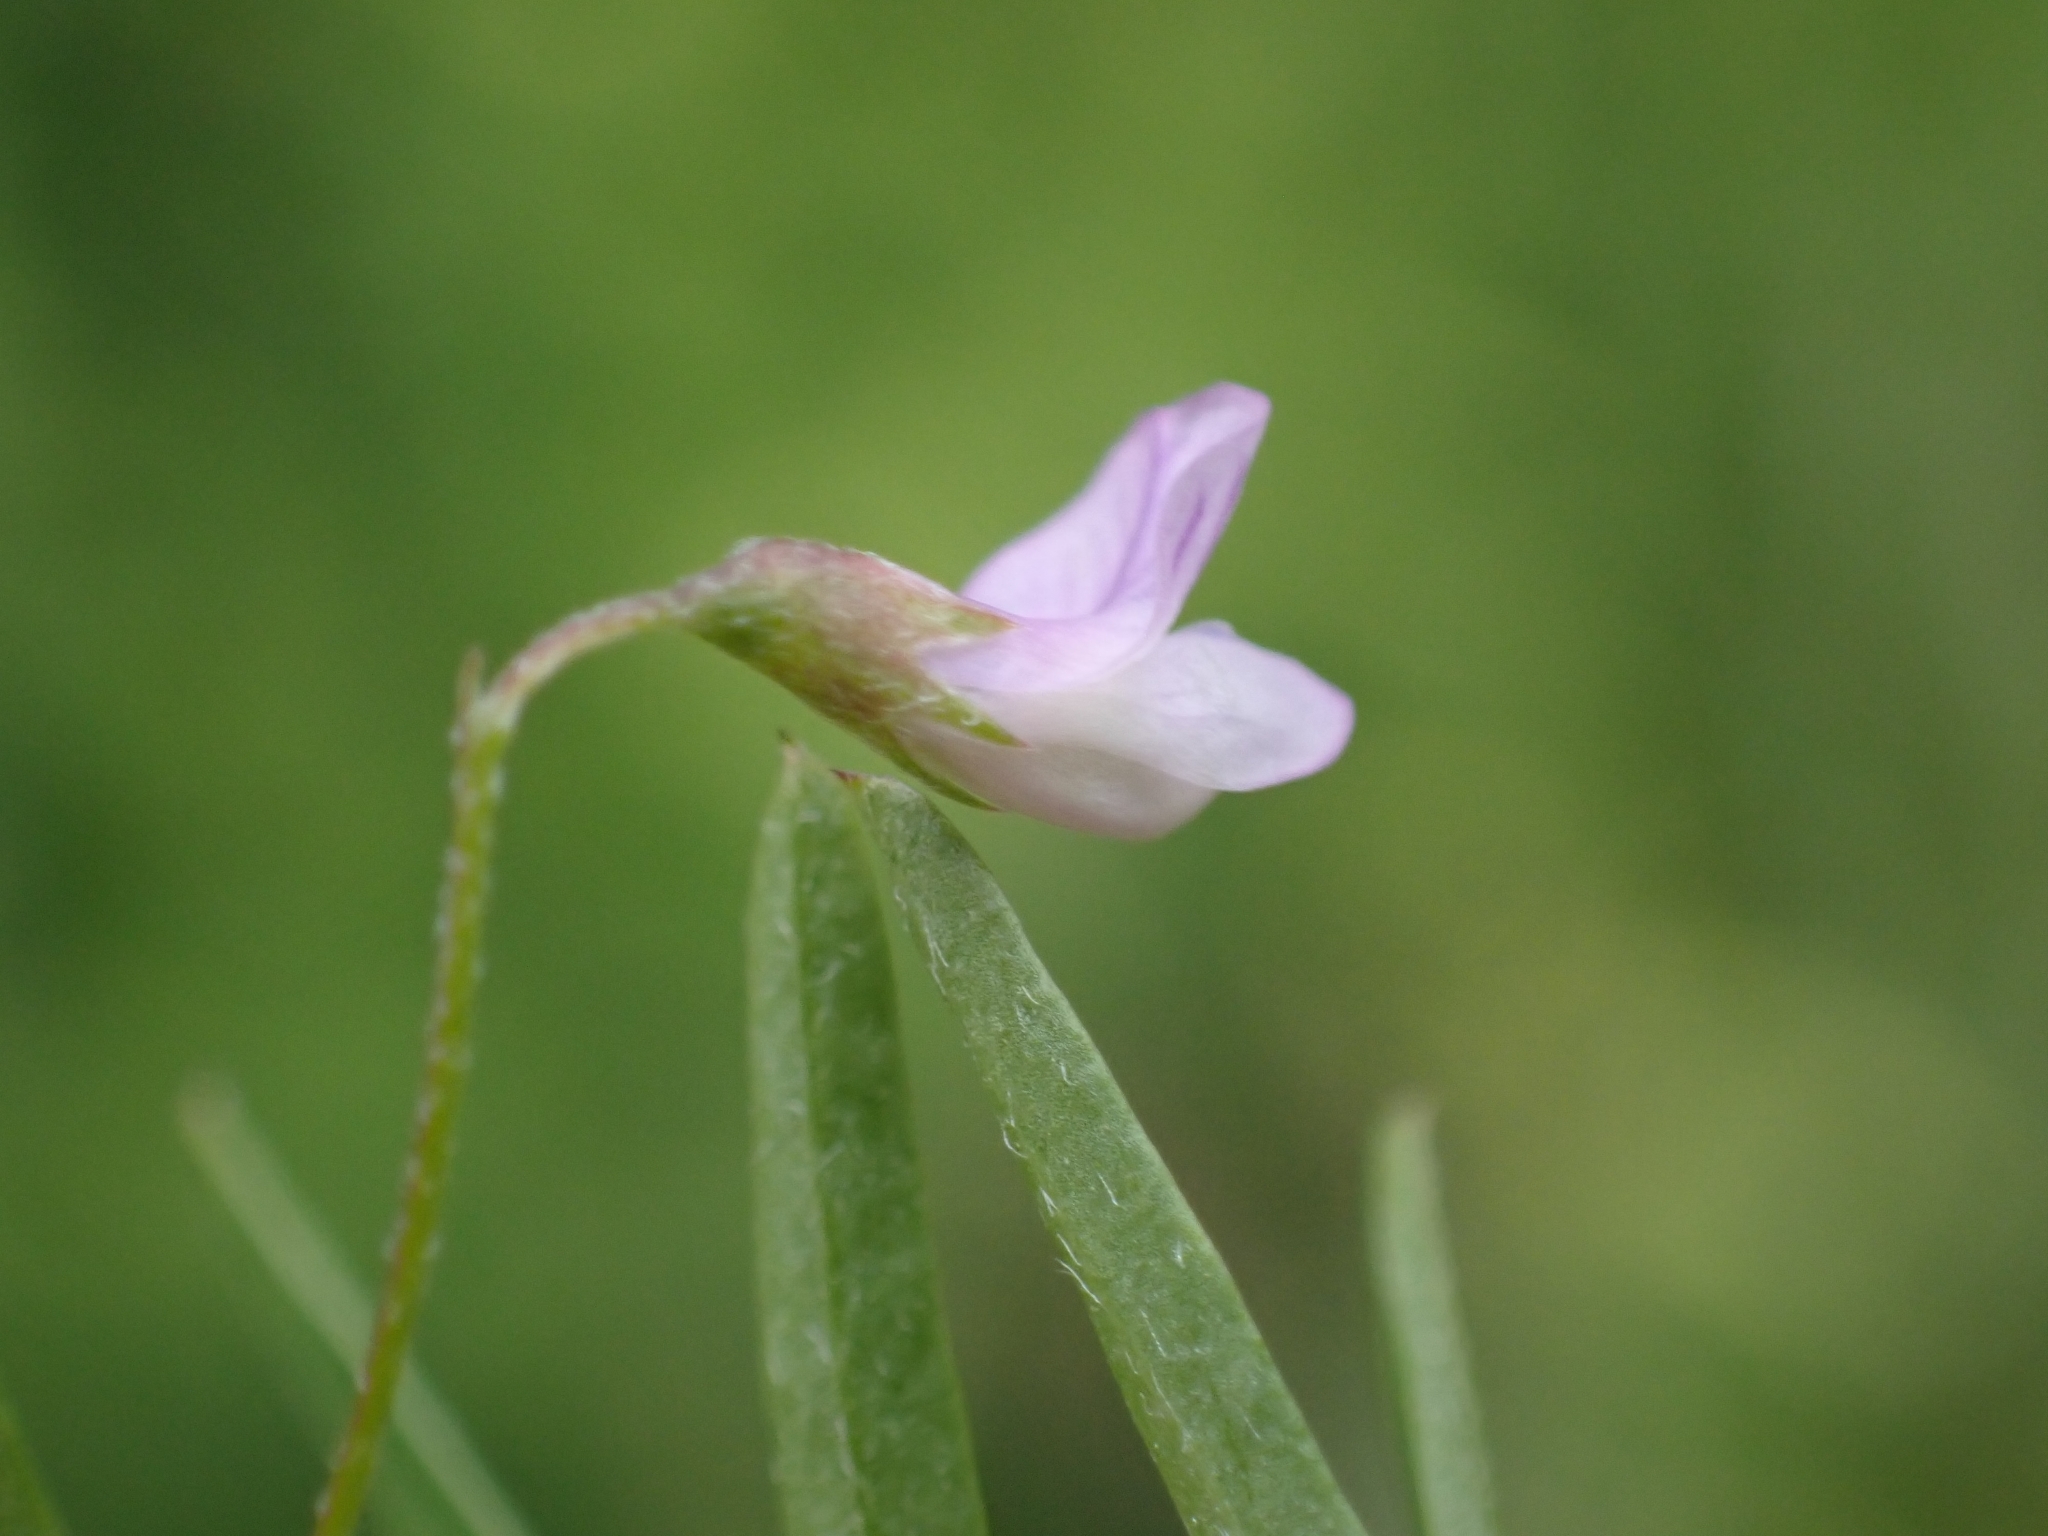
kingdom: Plantae
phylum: Tracheophyta
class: Magnoliopsida
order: Fabales
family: Fabaceae
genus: Vicia
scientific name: Vicia tetrasperma
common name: Smooth tare
